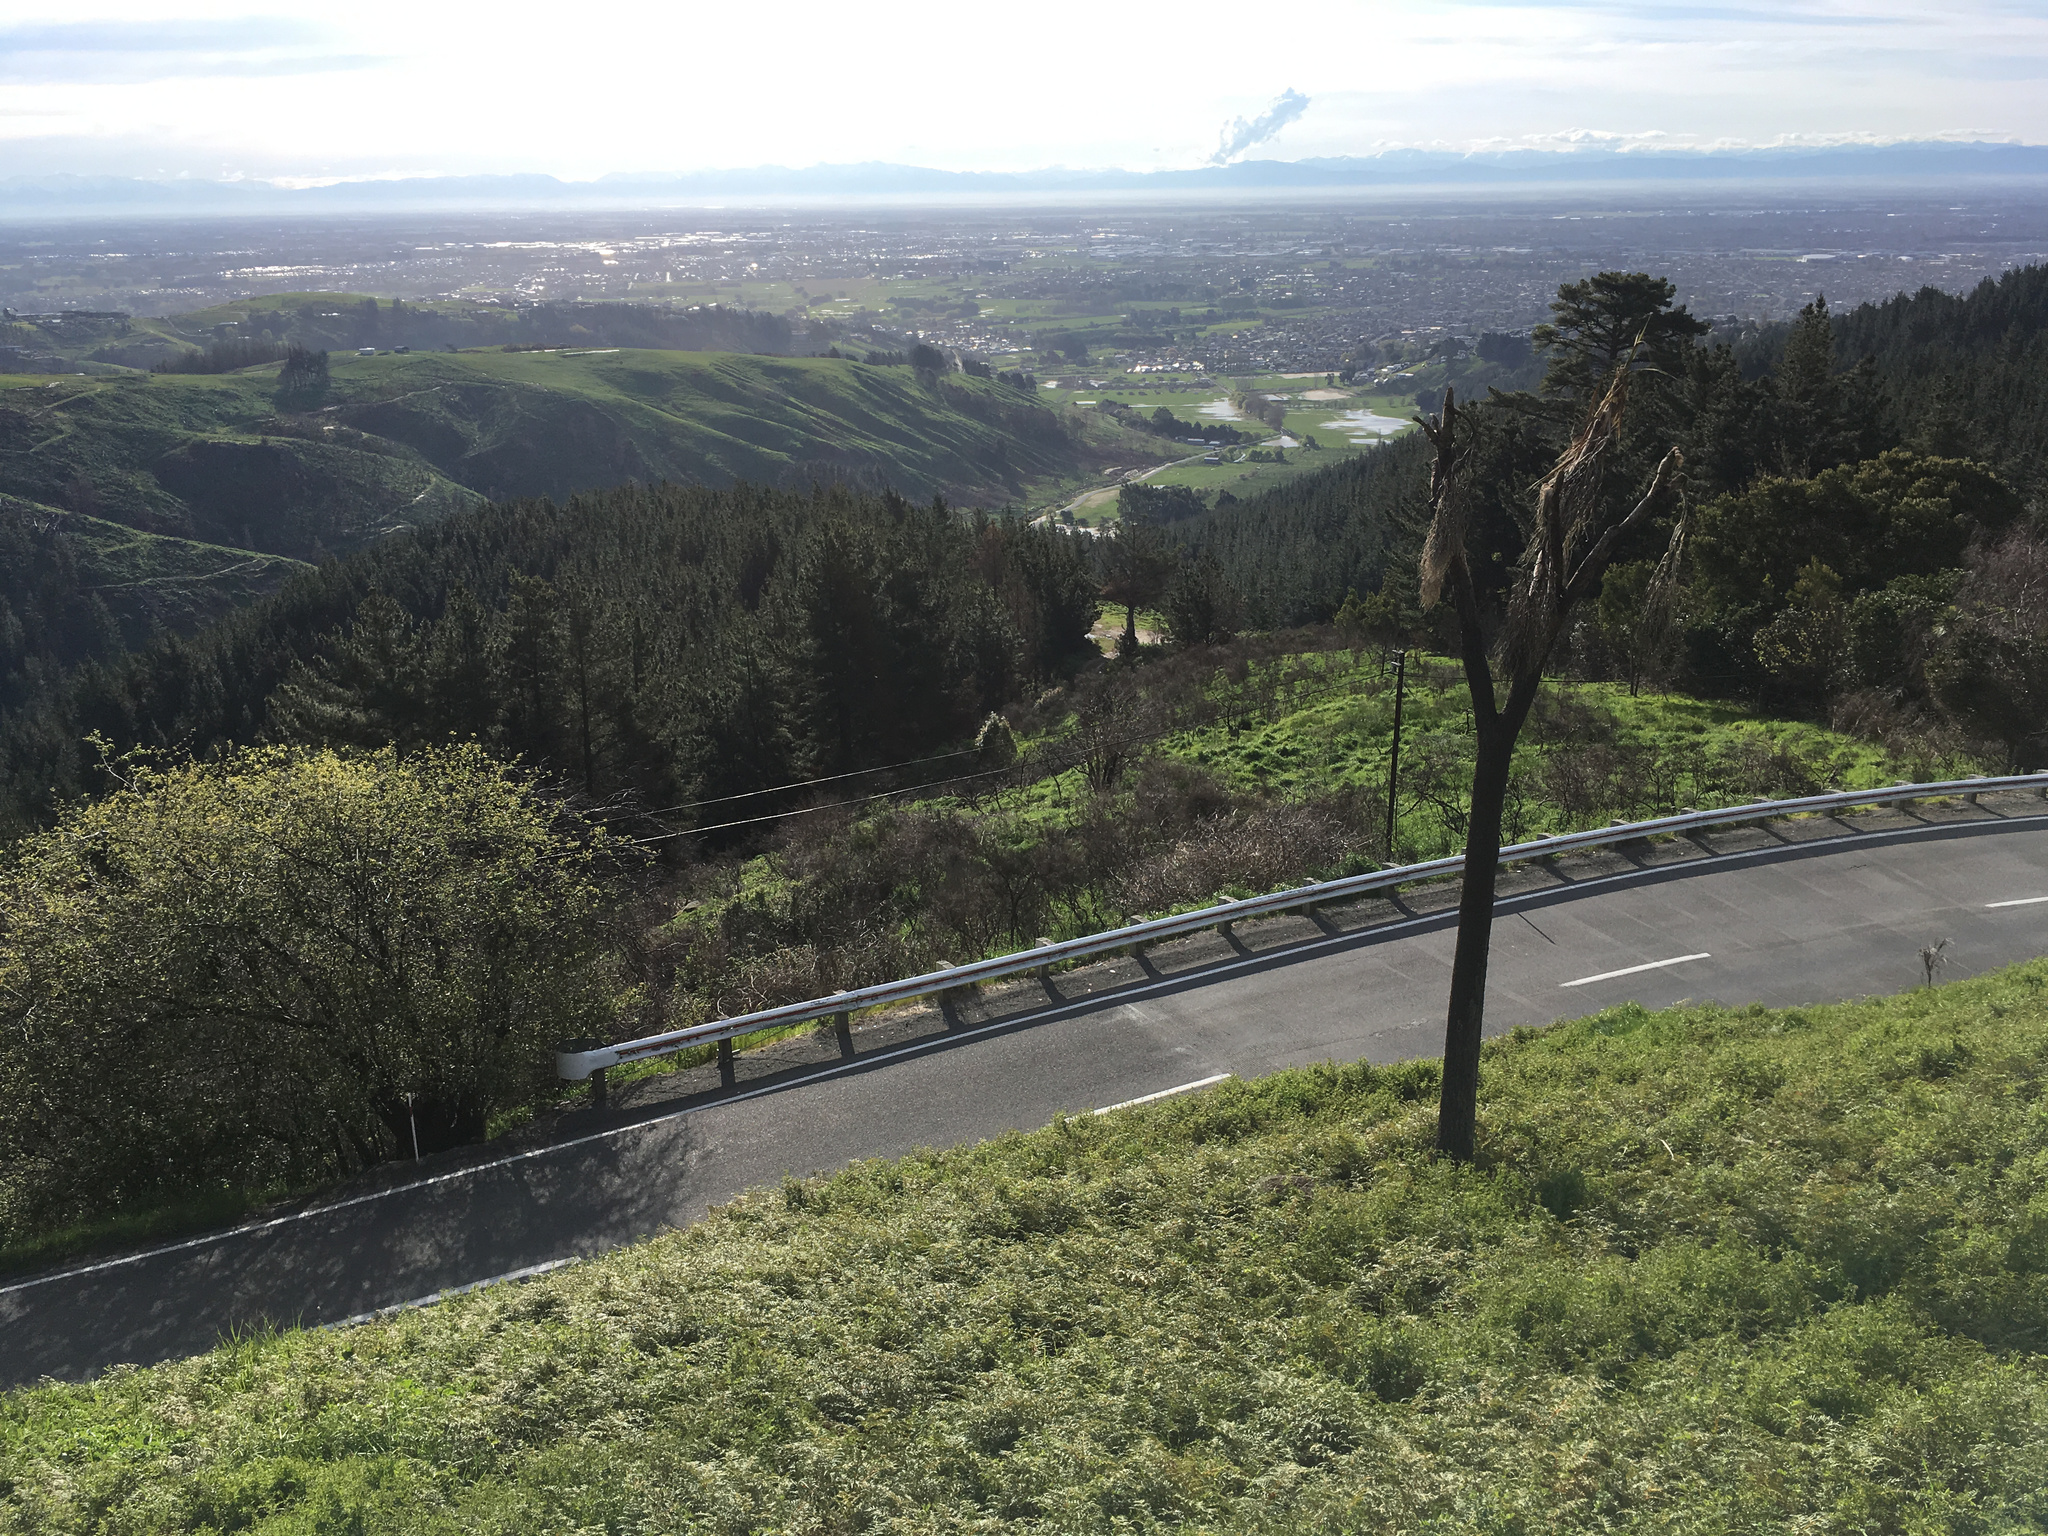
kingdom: Plantae
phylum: Tracheophyta
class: Liliopsida
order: Asparagales
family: Asparagaceae
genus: Cordyline
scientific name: Cordyline australis
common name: Cabbage-palm
